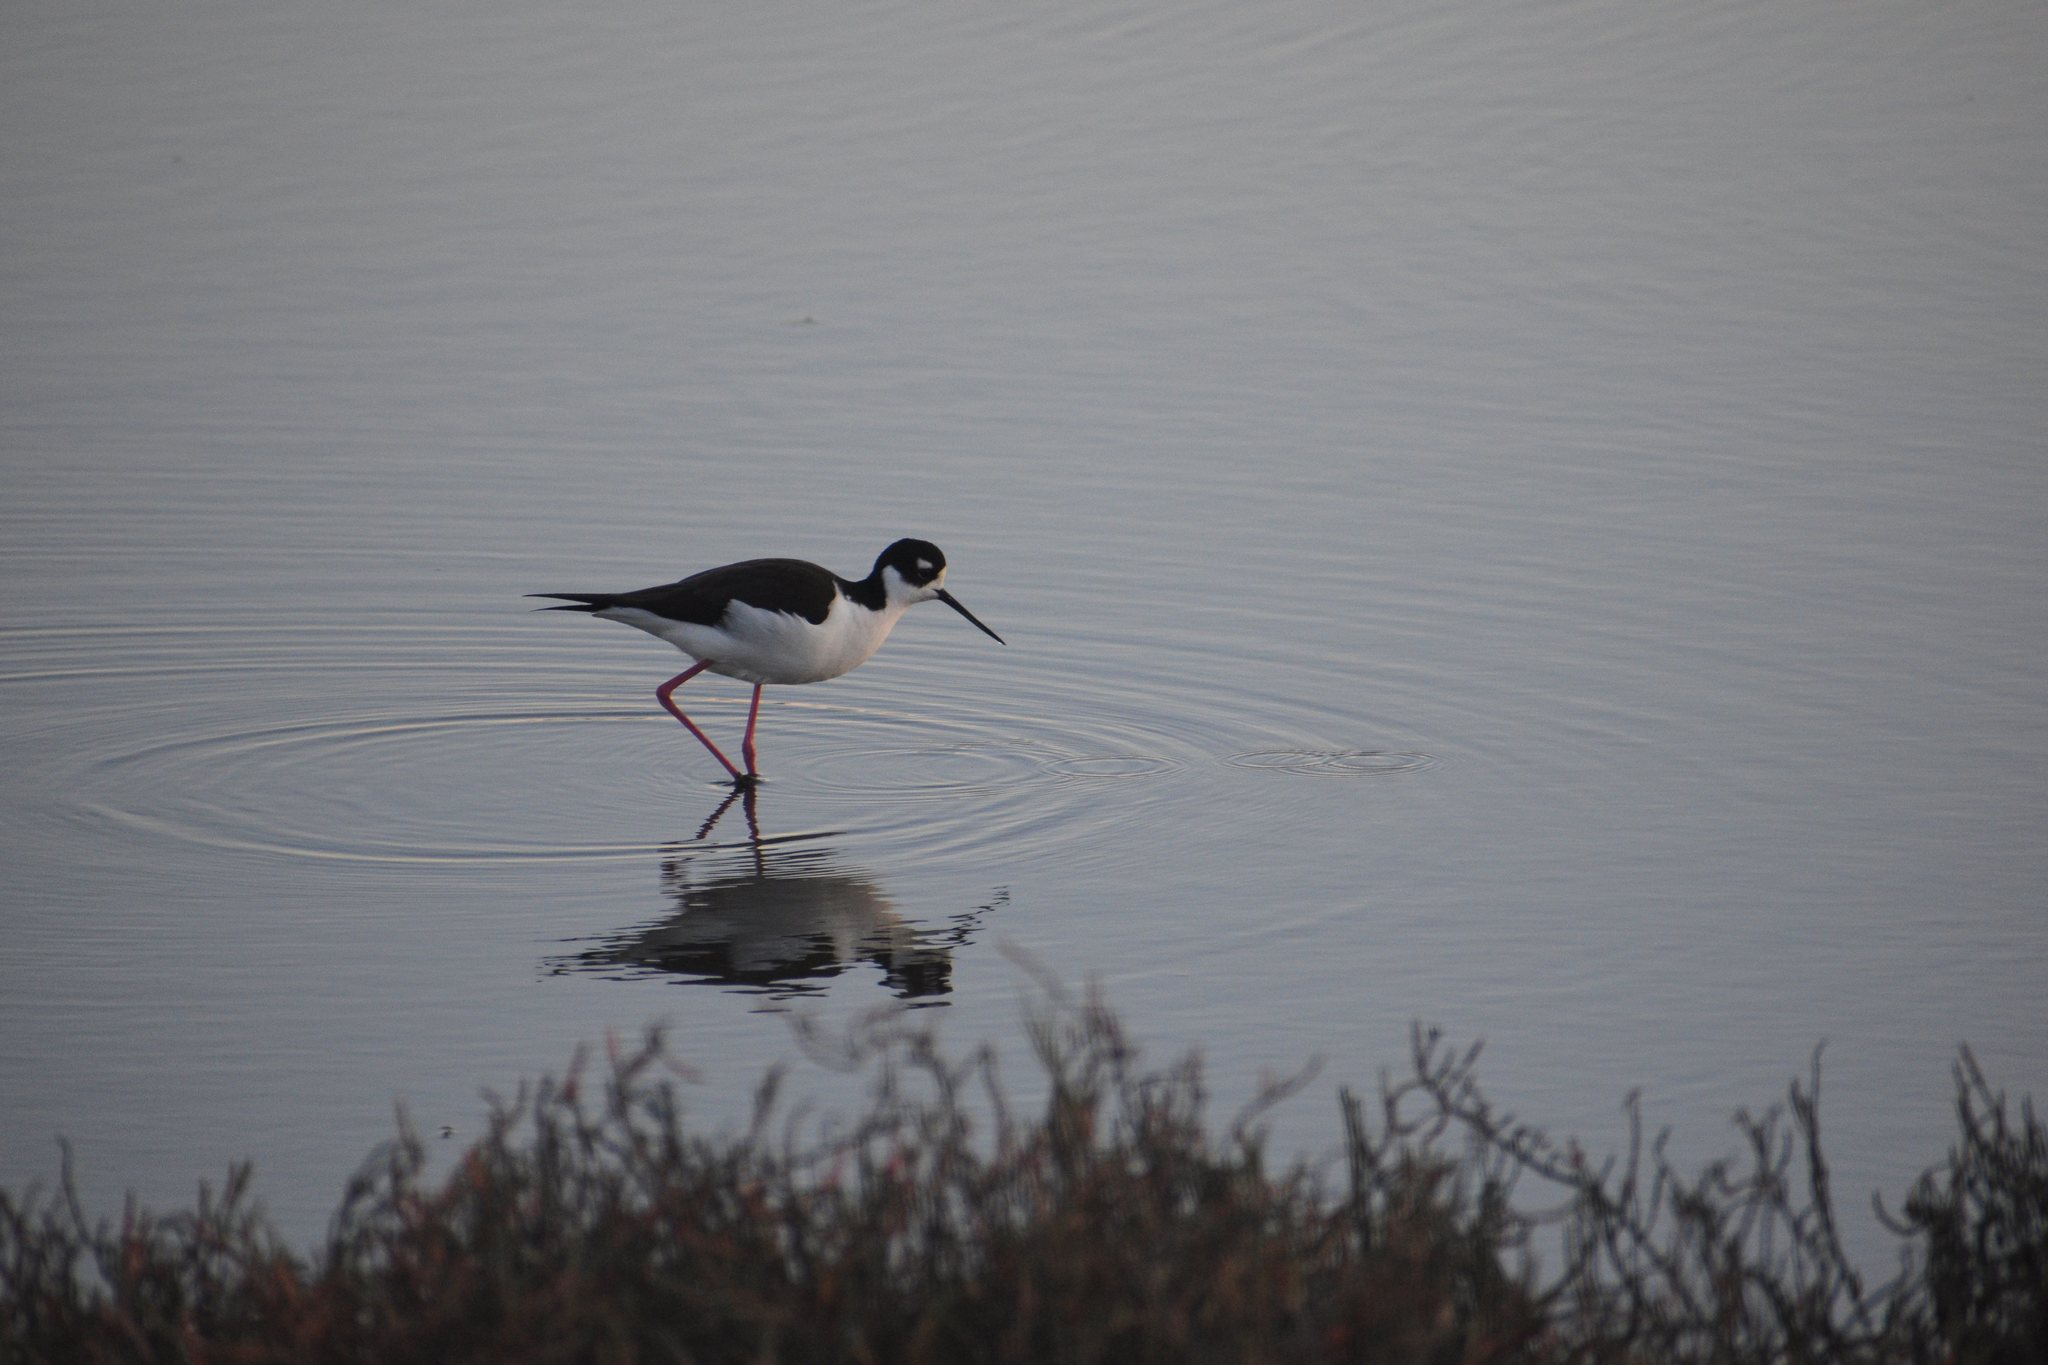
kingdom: Animalia
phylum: Chordata
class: Aves
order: Charadriiformes
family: Recurvirostridae
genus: Himantopus
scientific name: Himantopus mexicanus
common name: Black-necked stilt
